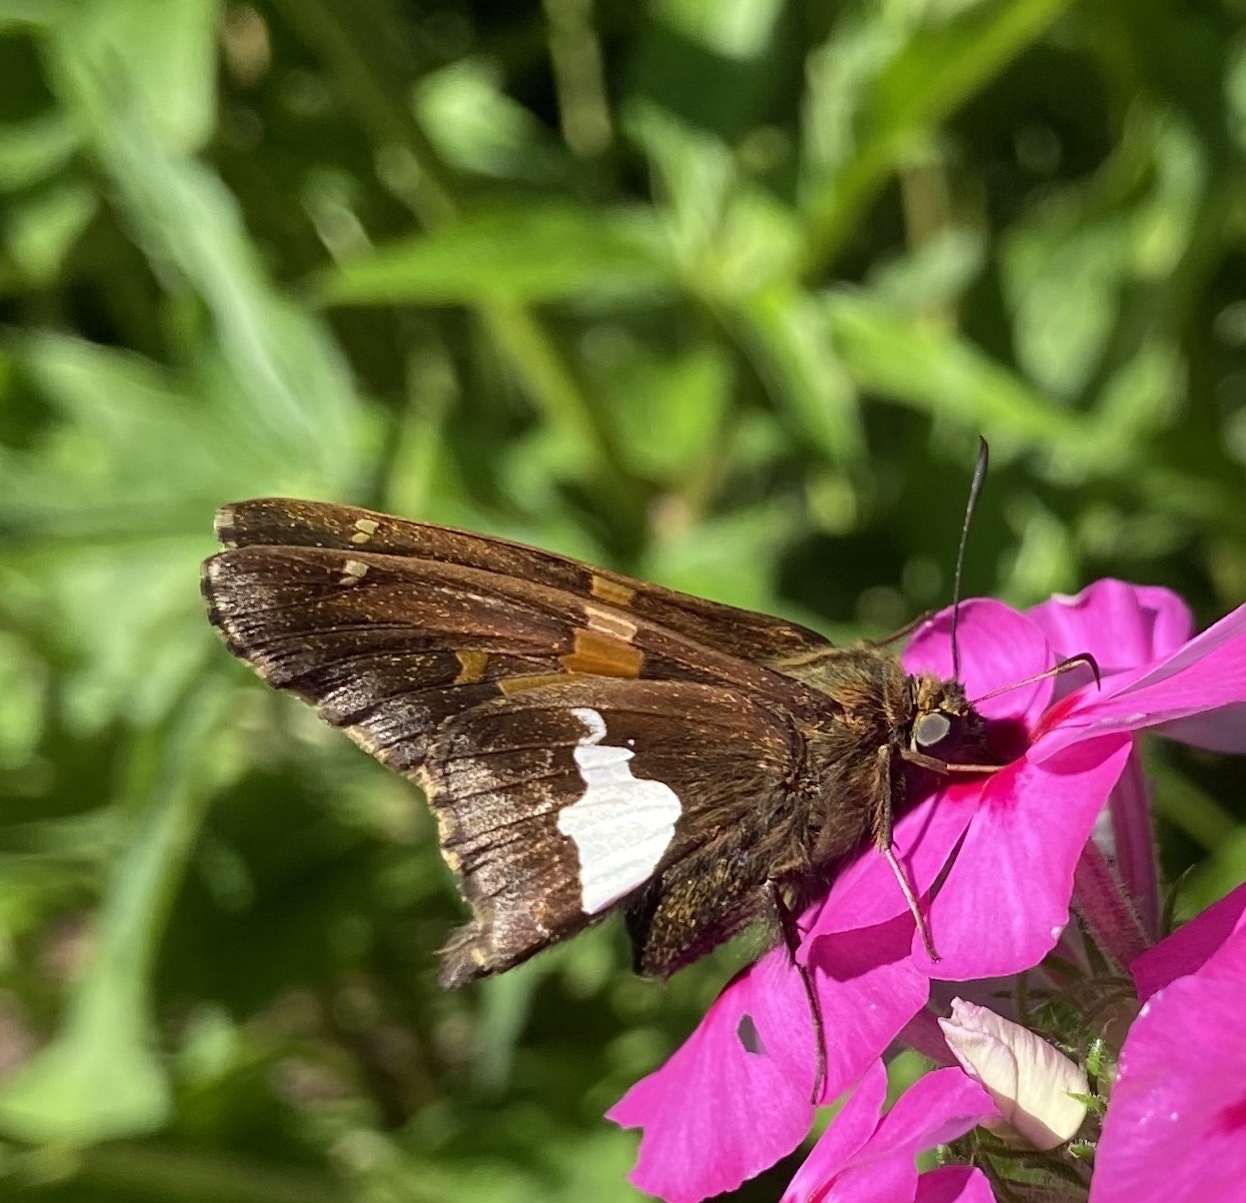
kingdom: Animalia
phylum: Arthropoda
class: Insecta
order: Lepidoptera
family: Hesperiidae
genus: Epargyreus
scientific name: Epargyreus clarus
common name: Silver-spotted skipper
